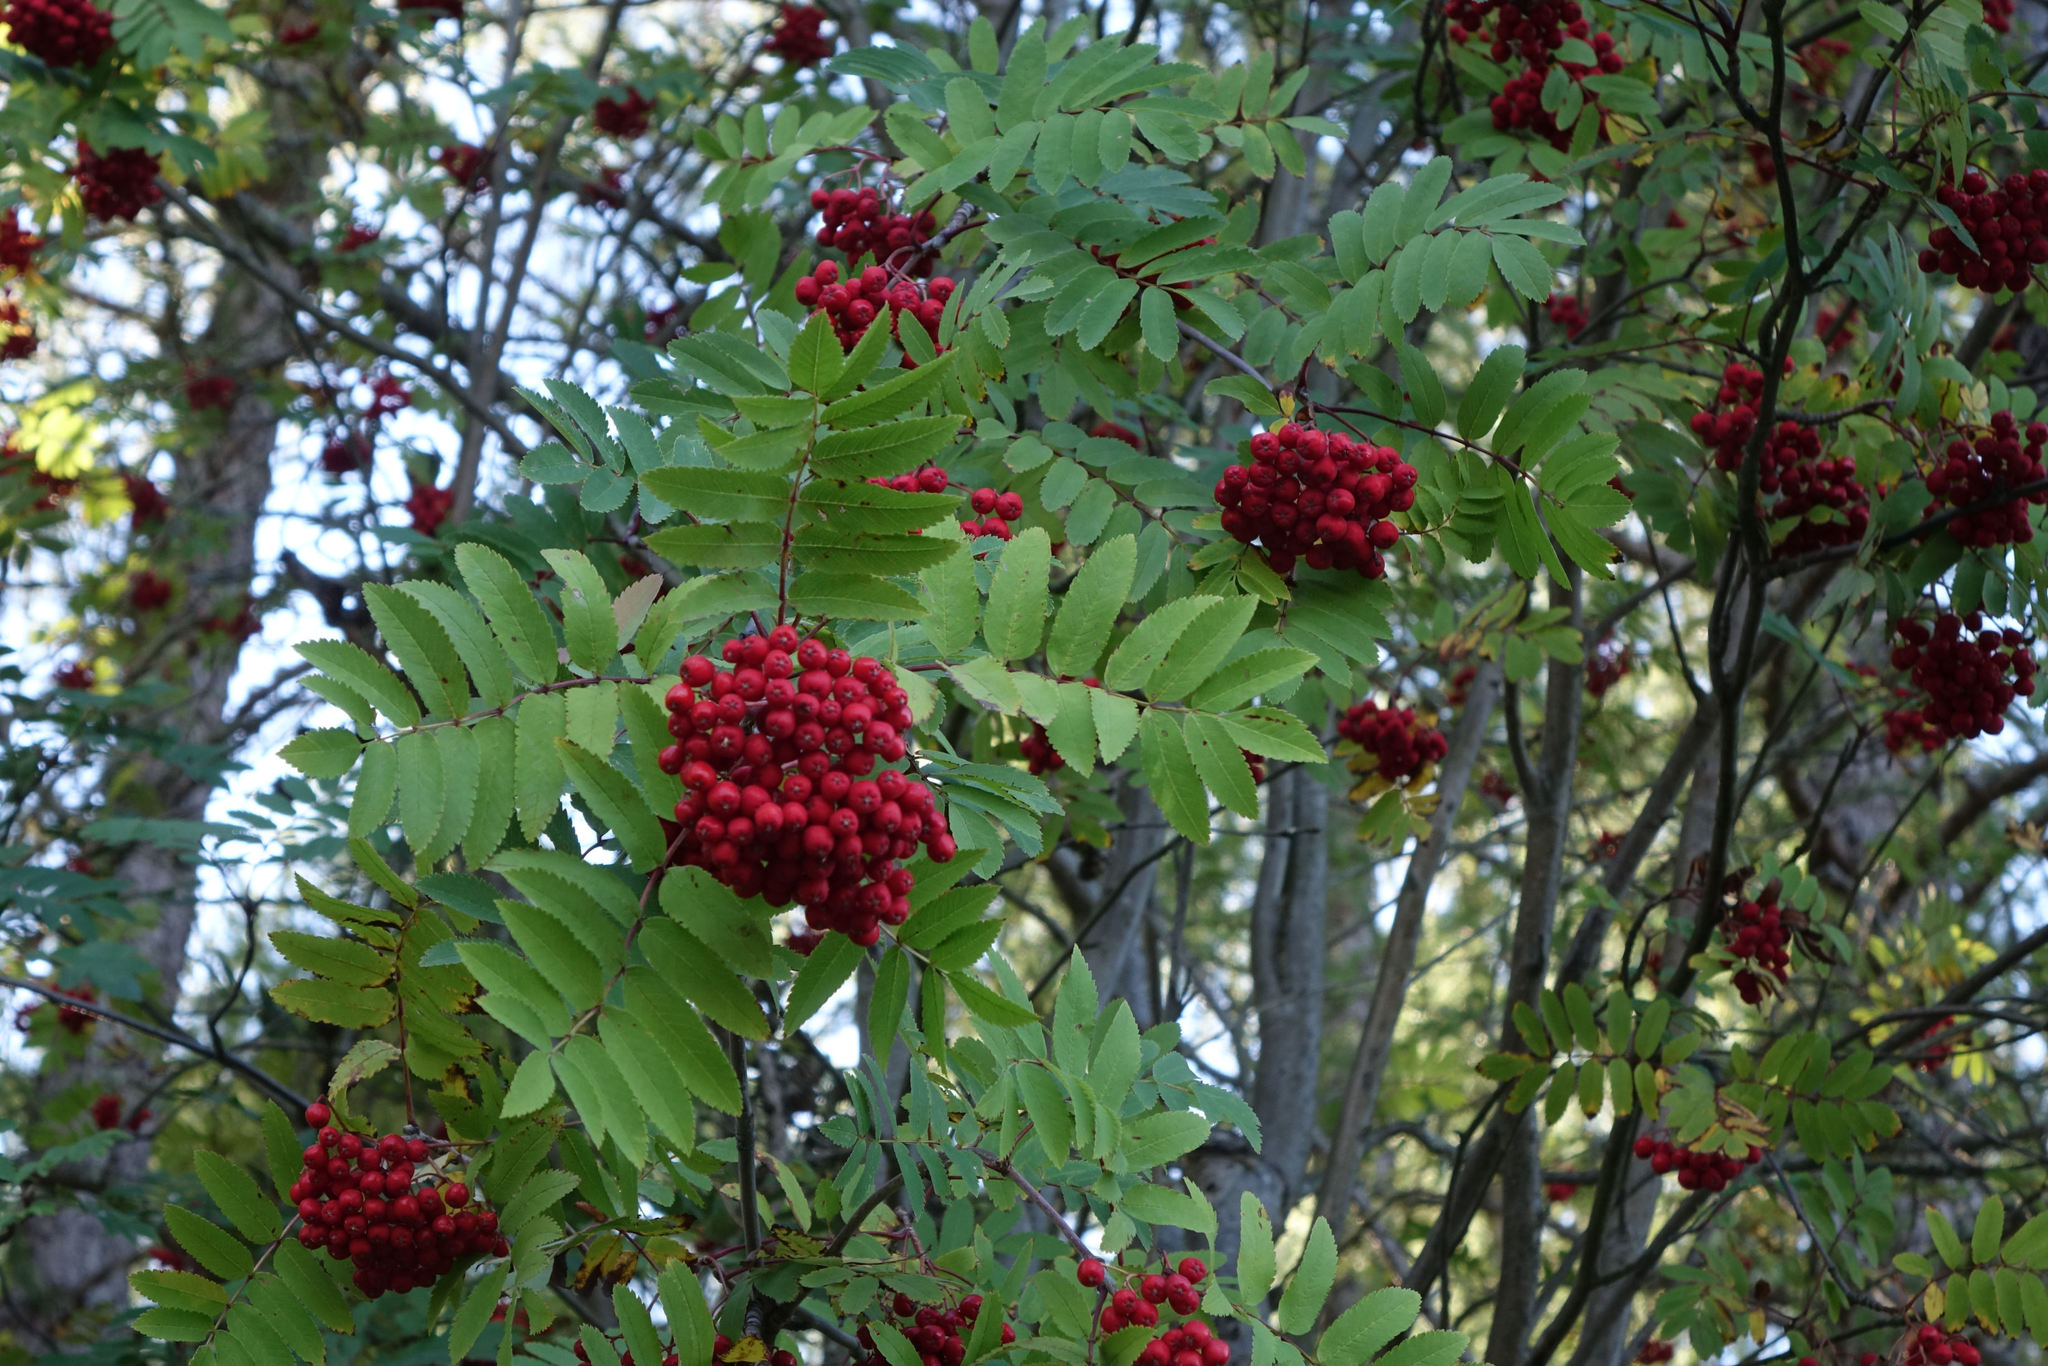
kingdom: Plantae
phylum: Tracheophyta
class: Magnoliopsida
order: Rosales
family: Rosaceae
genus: Sorbus
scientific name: Sorbus aucuparia
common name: Rowan
